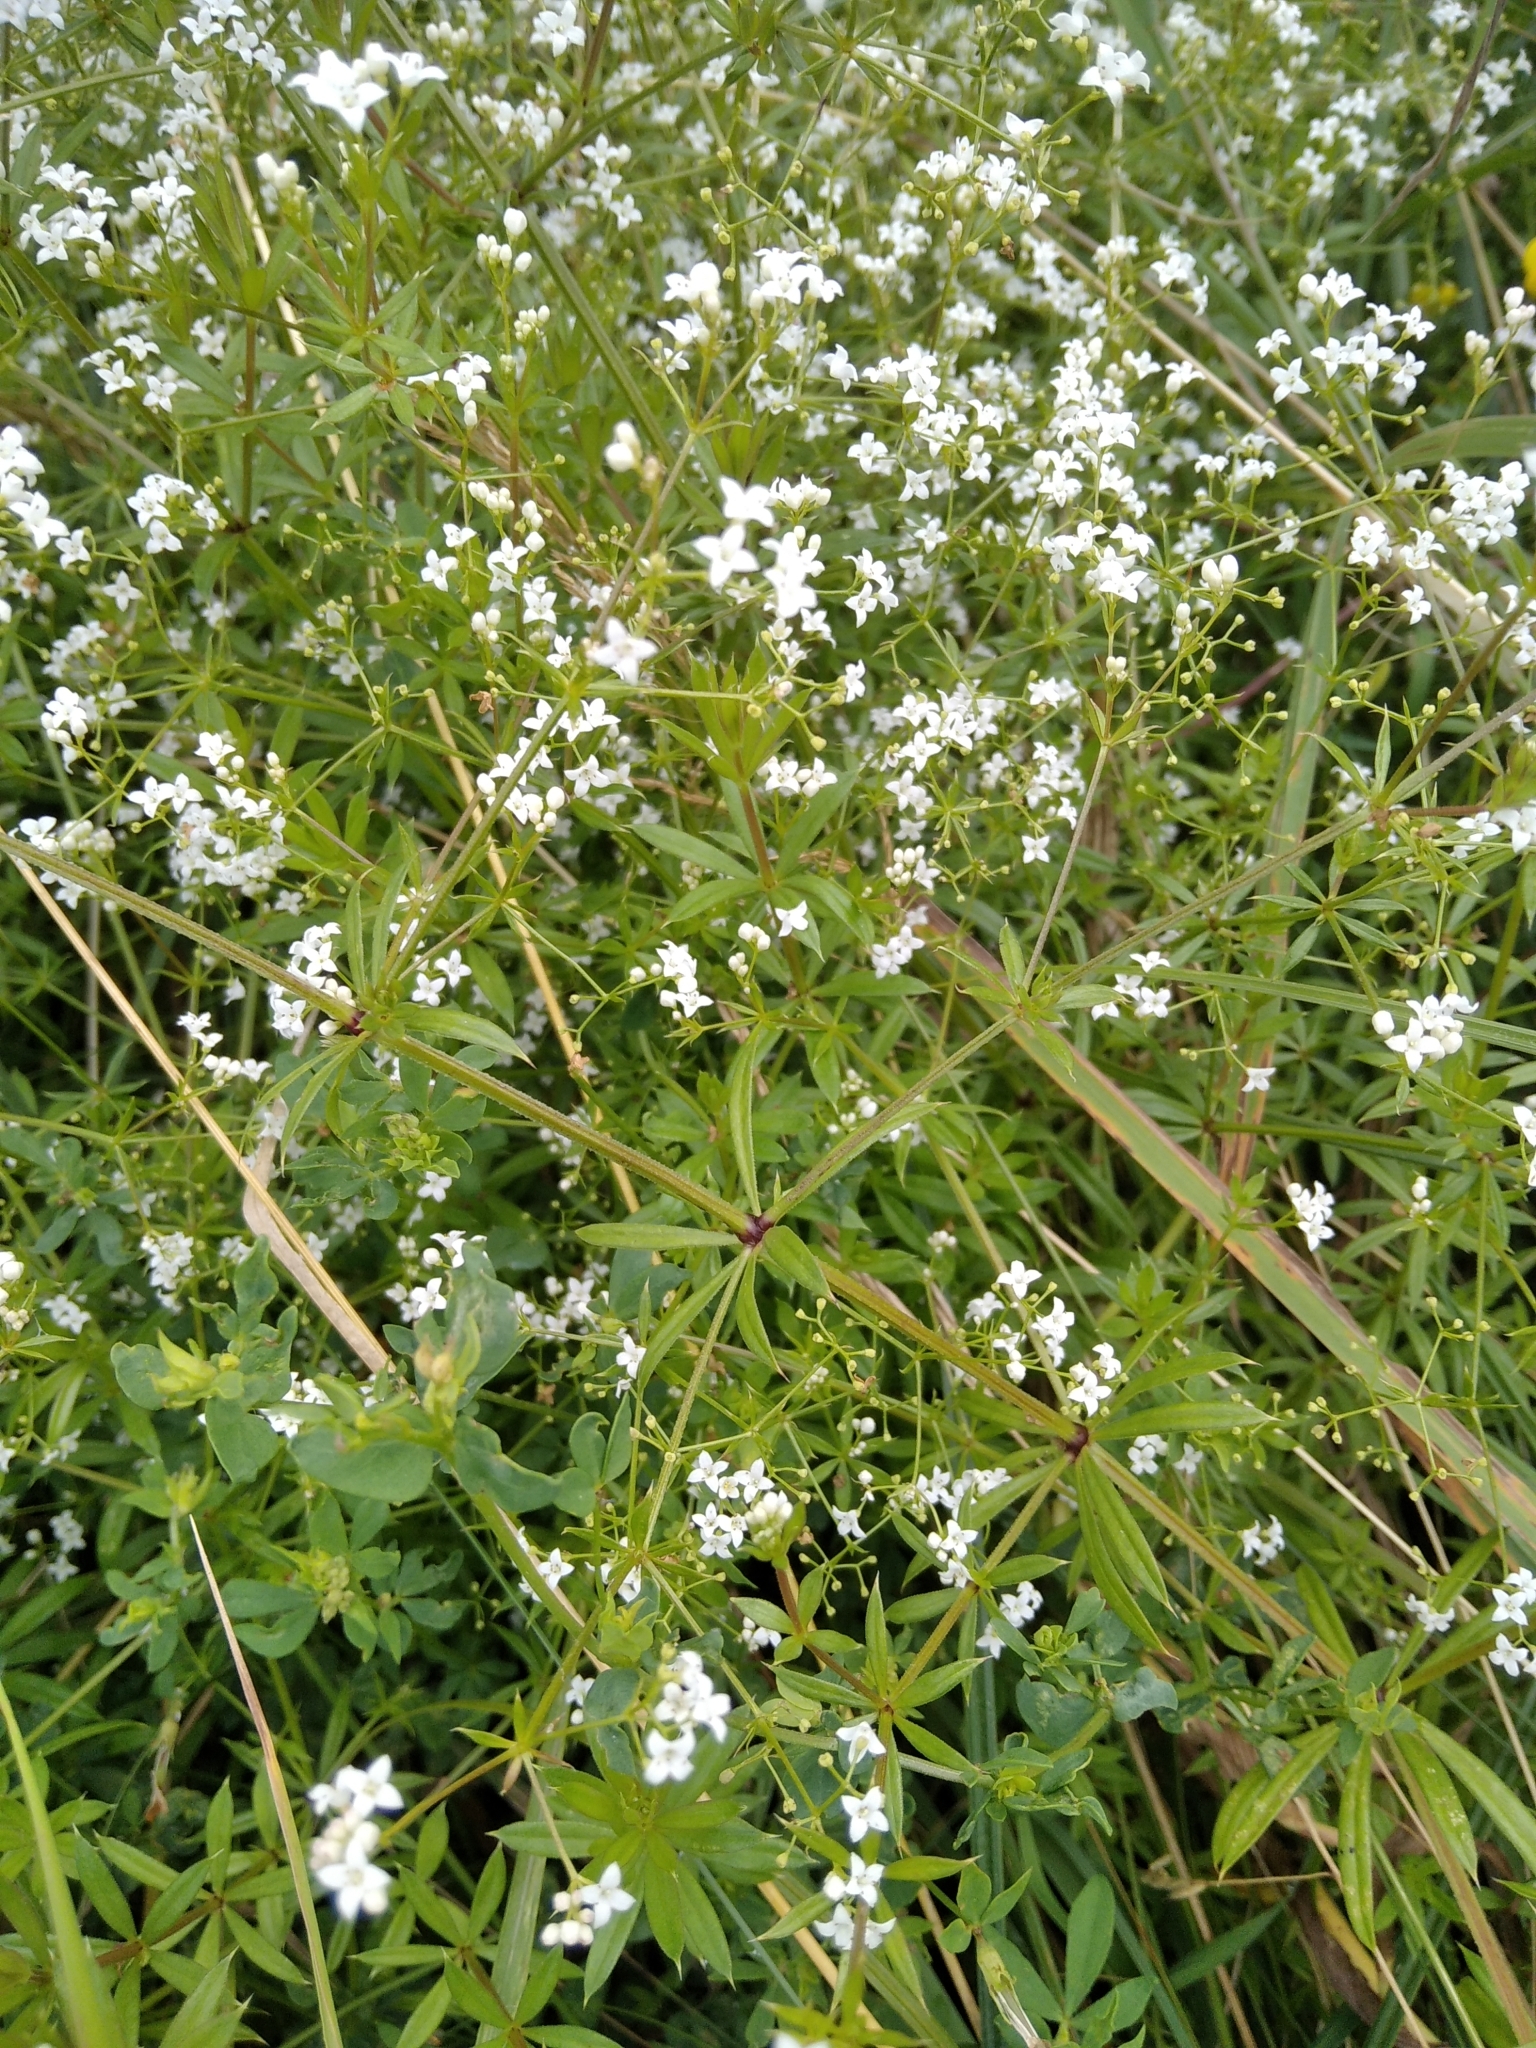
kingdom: Plantae
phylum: Tracheophyta
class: Magnoliopsida
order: Gentianales
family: Rubiaceae
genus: Galium
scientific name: Galium rivale
